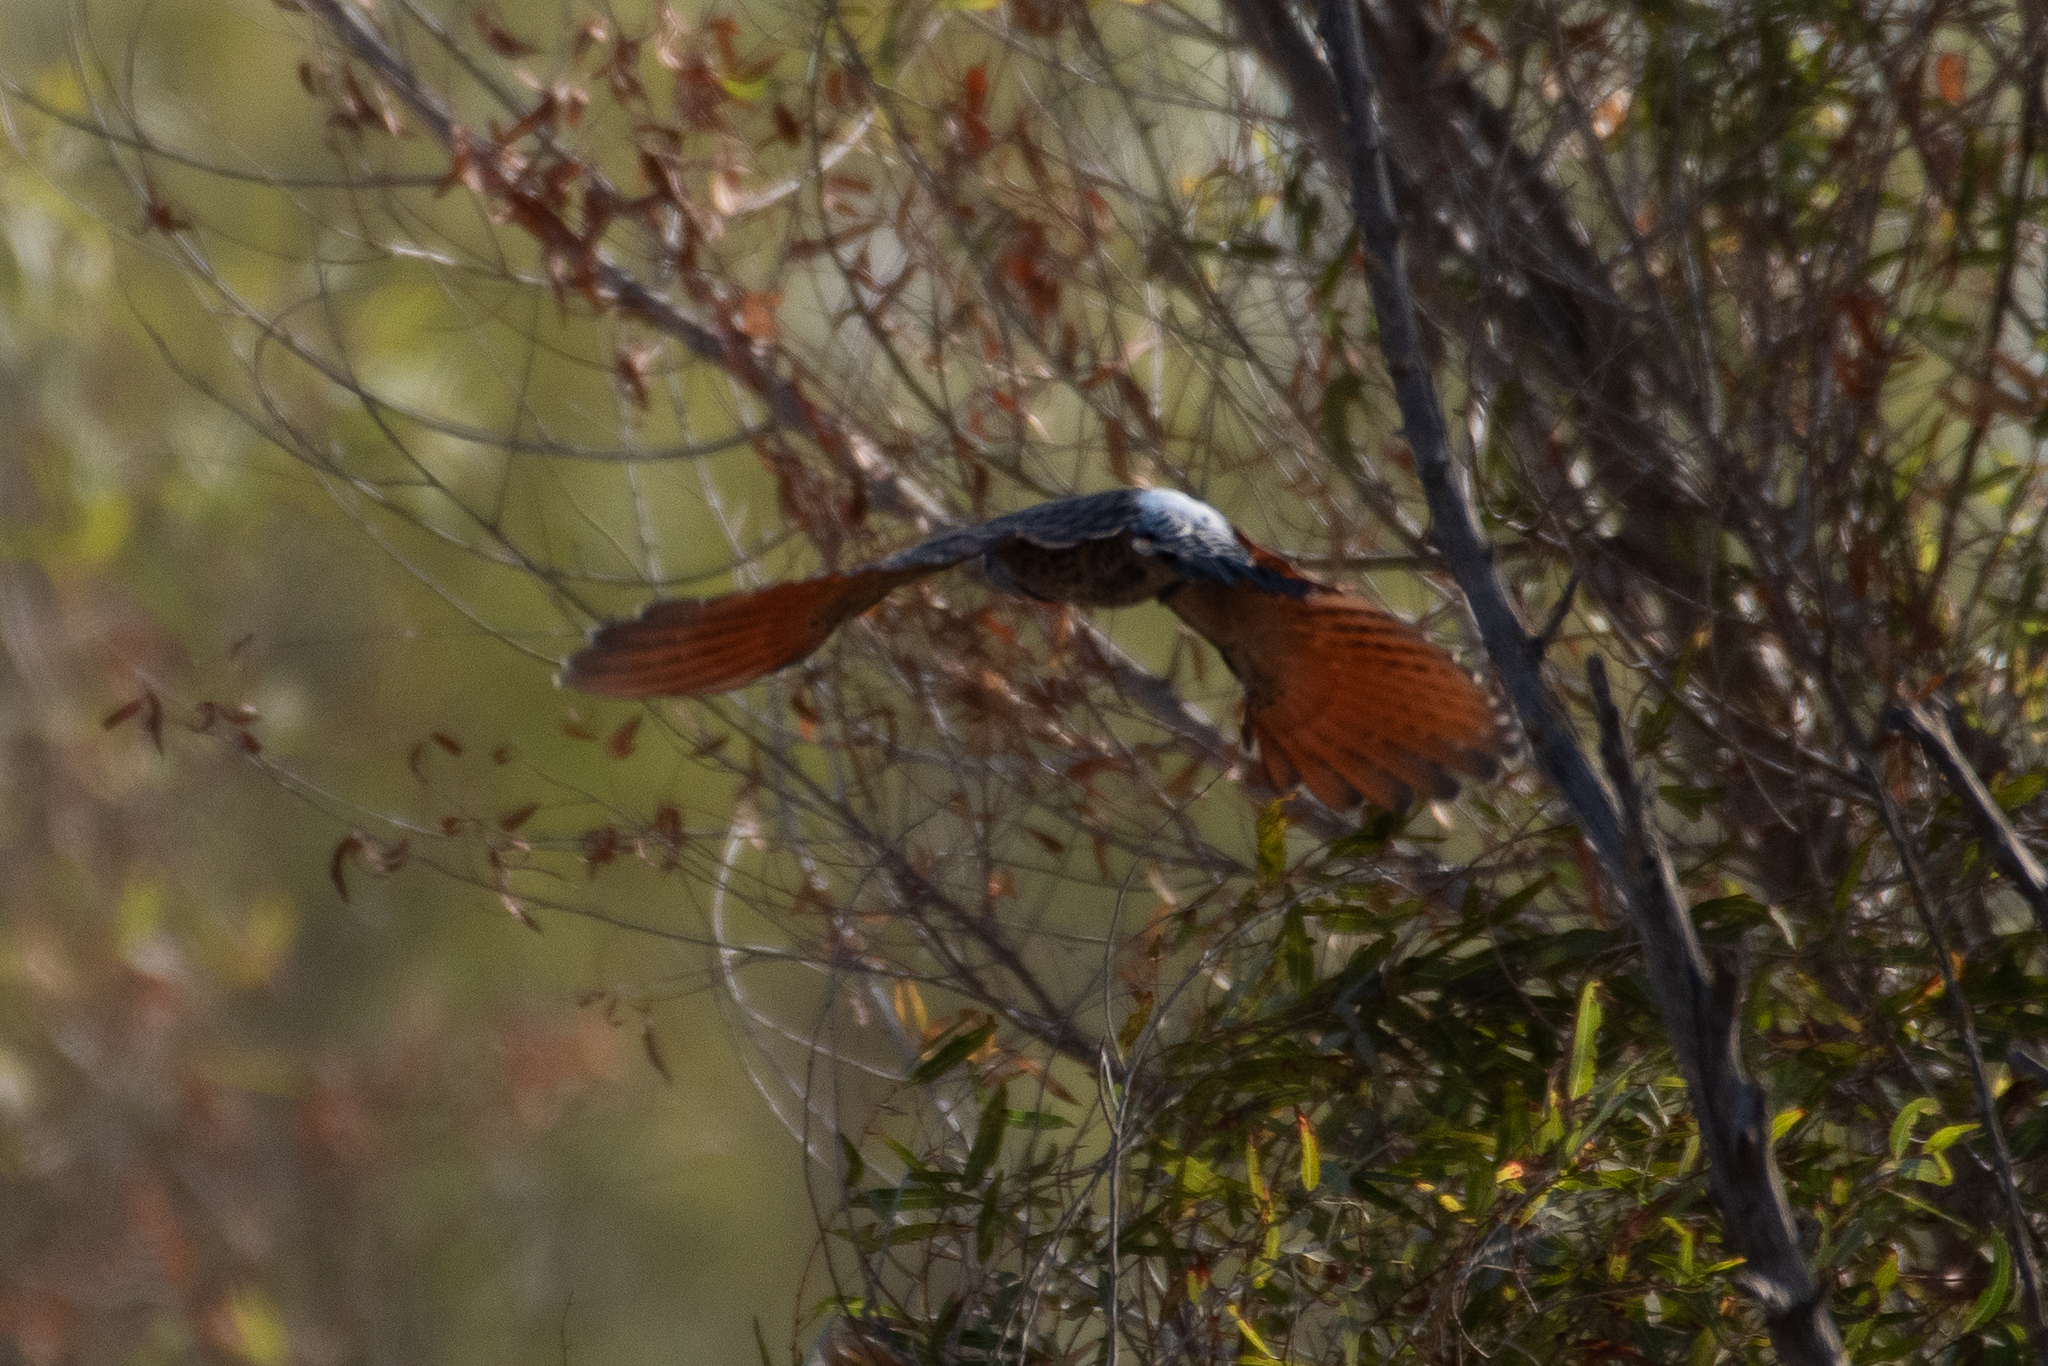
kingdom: Animalia
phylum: Chordata
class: Aves
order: Piciformes
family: Picidae
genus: Colaptes
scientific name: Colaptes auratus
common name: Northern flicker
